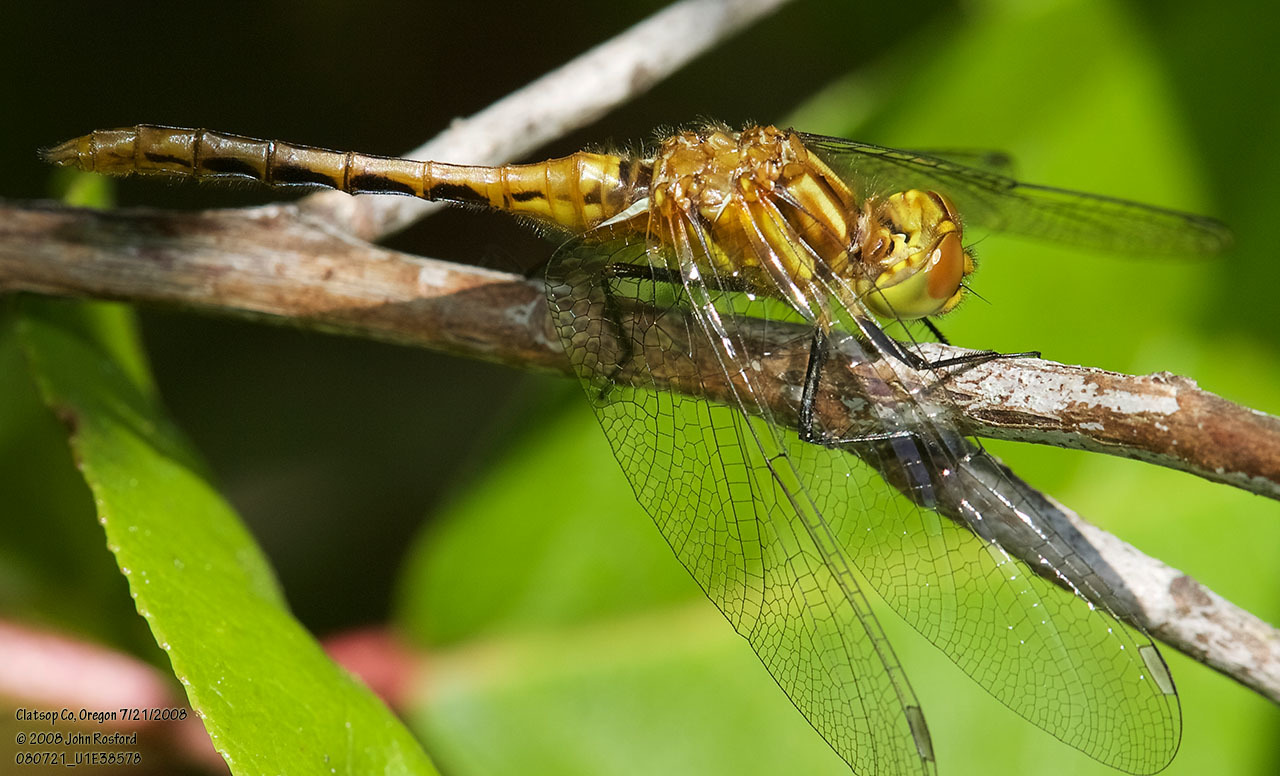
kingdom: Animalia
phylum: Arthropoda
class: Insecta
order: Odonata
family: Libellulidae
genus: Sympetrum
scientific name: Sympetrum pallipes
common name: Striped meadowhawk
